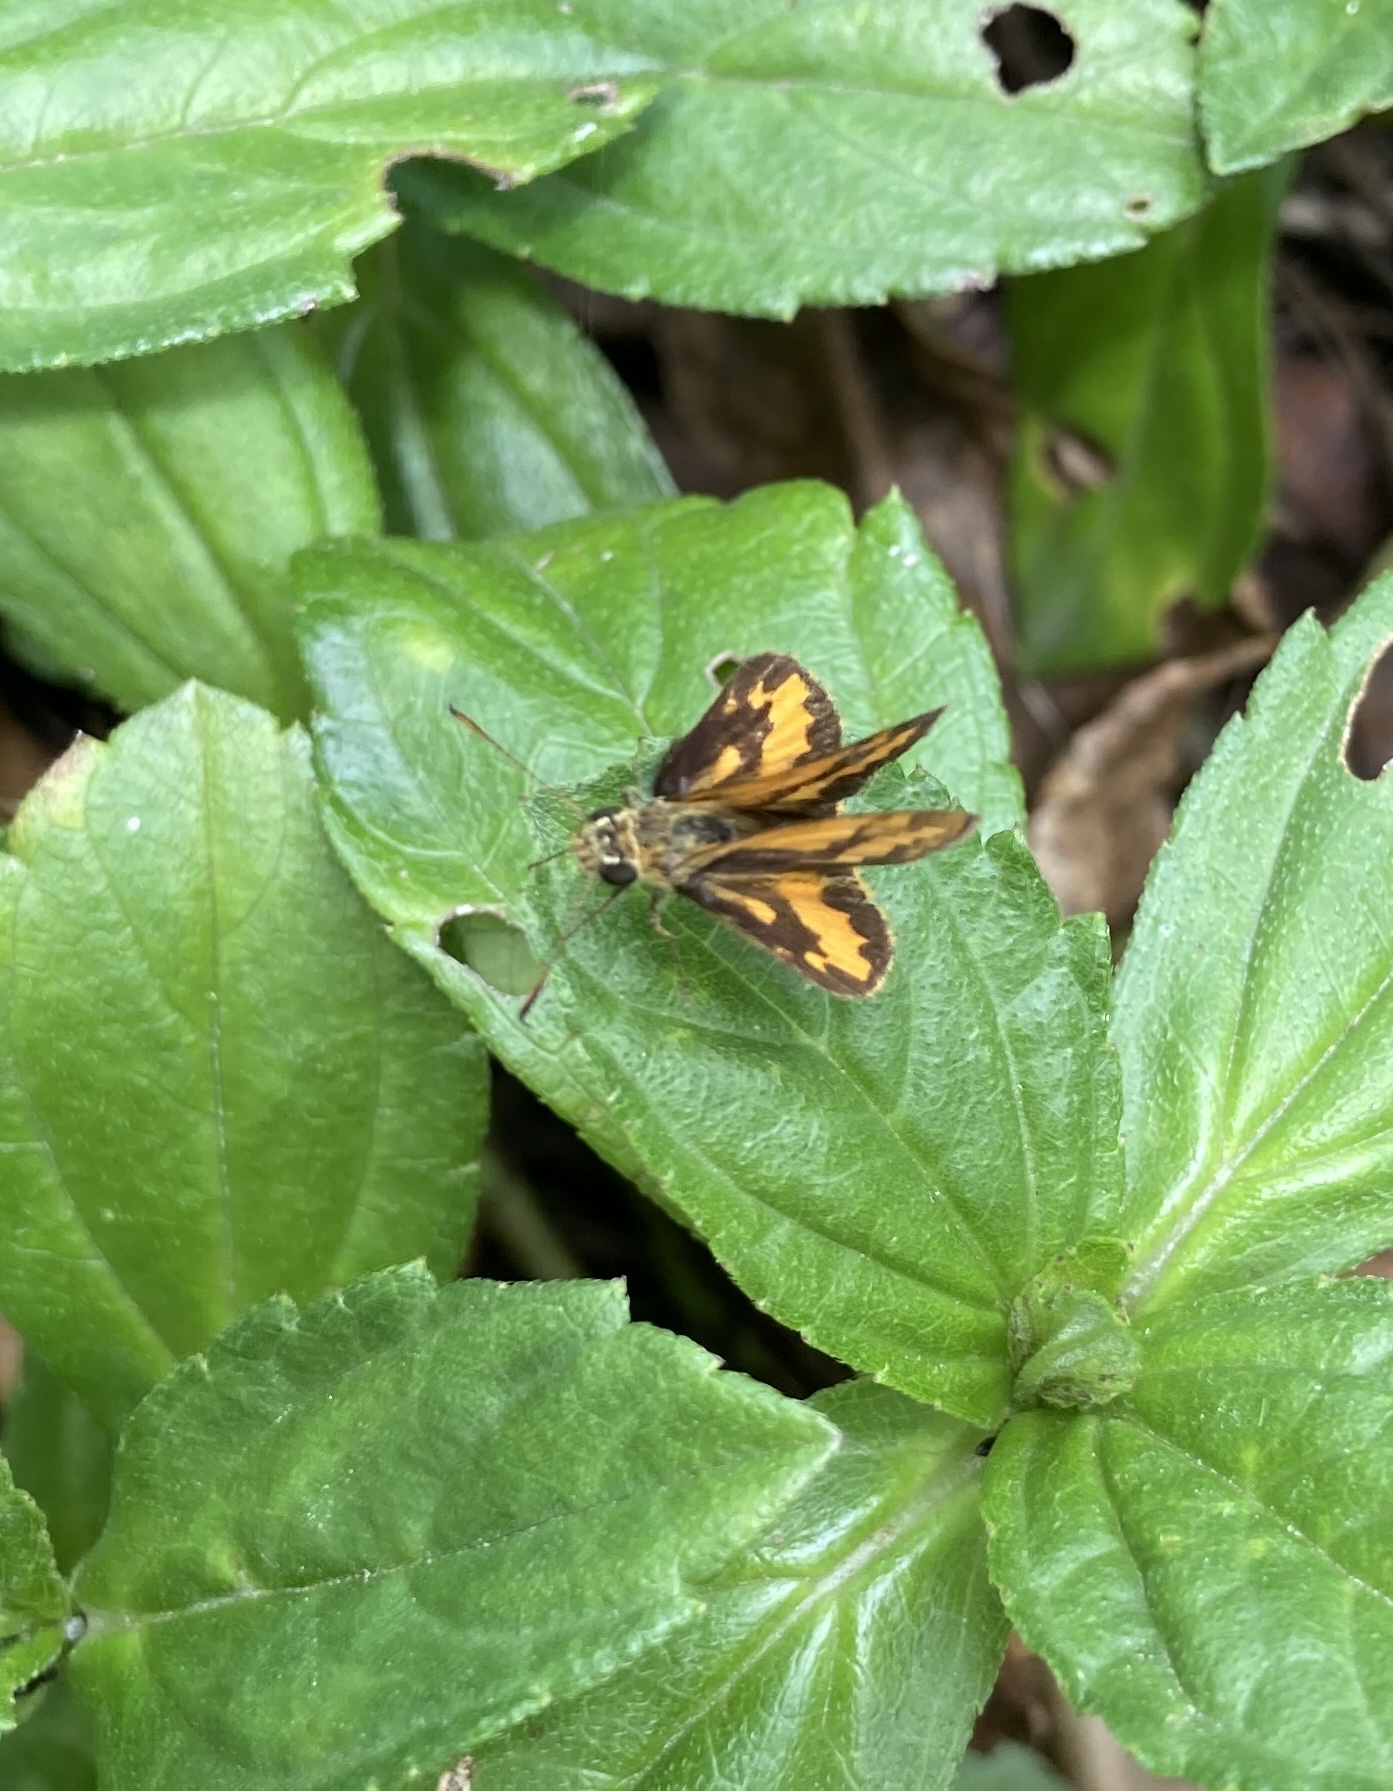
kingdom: Animalia
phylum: Arthropoda
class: Insecta
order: Lepidoptera
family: Hesperiidae
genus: Suniana
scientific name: Suniana sunias
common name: Wide-brand grass-dart
